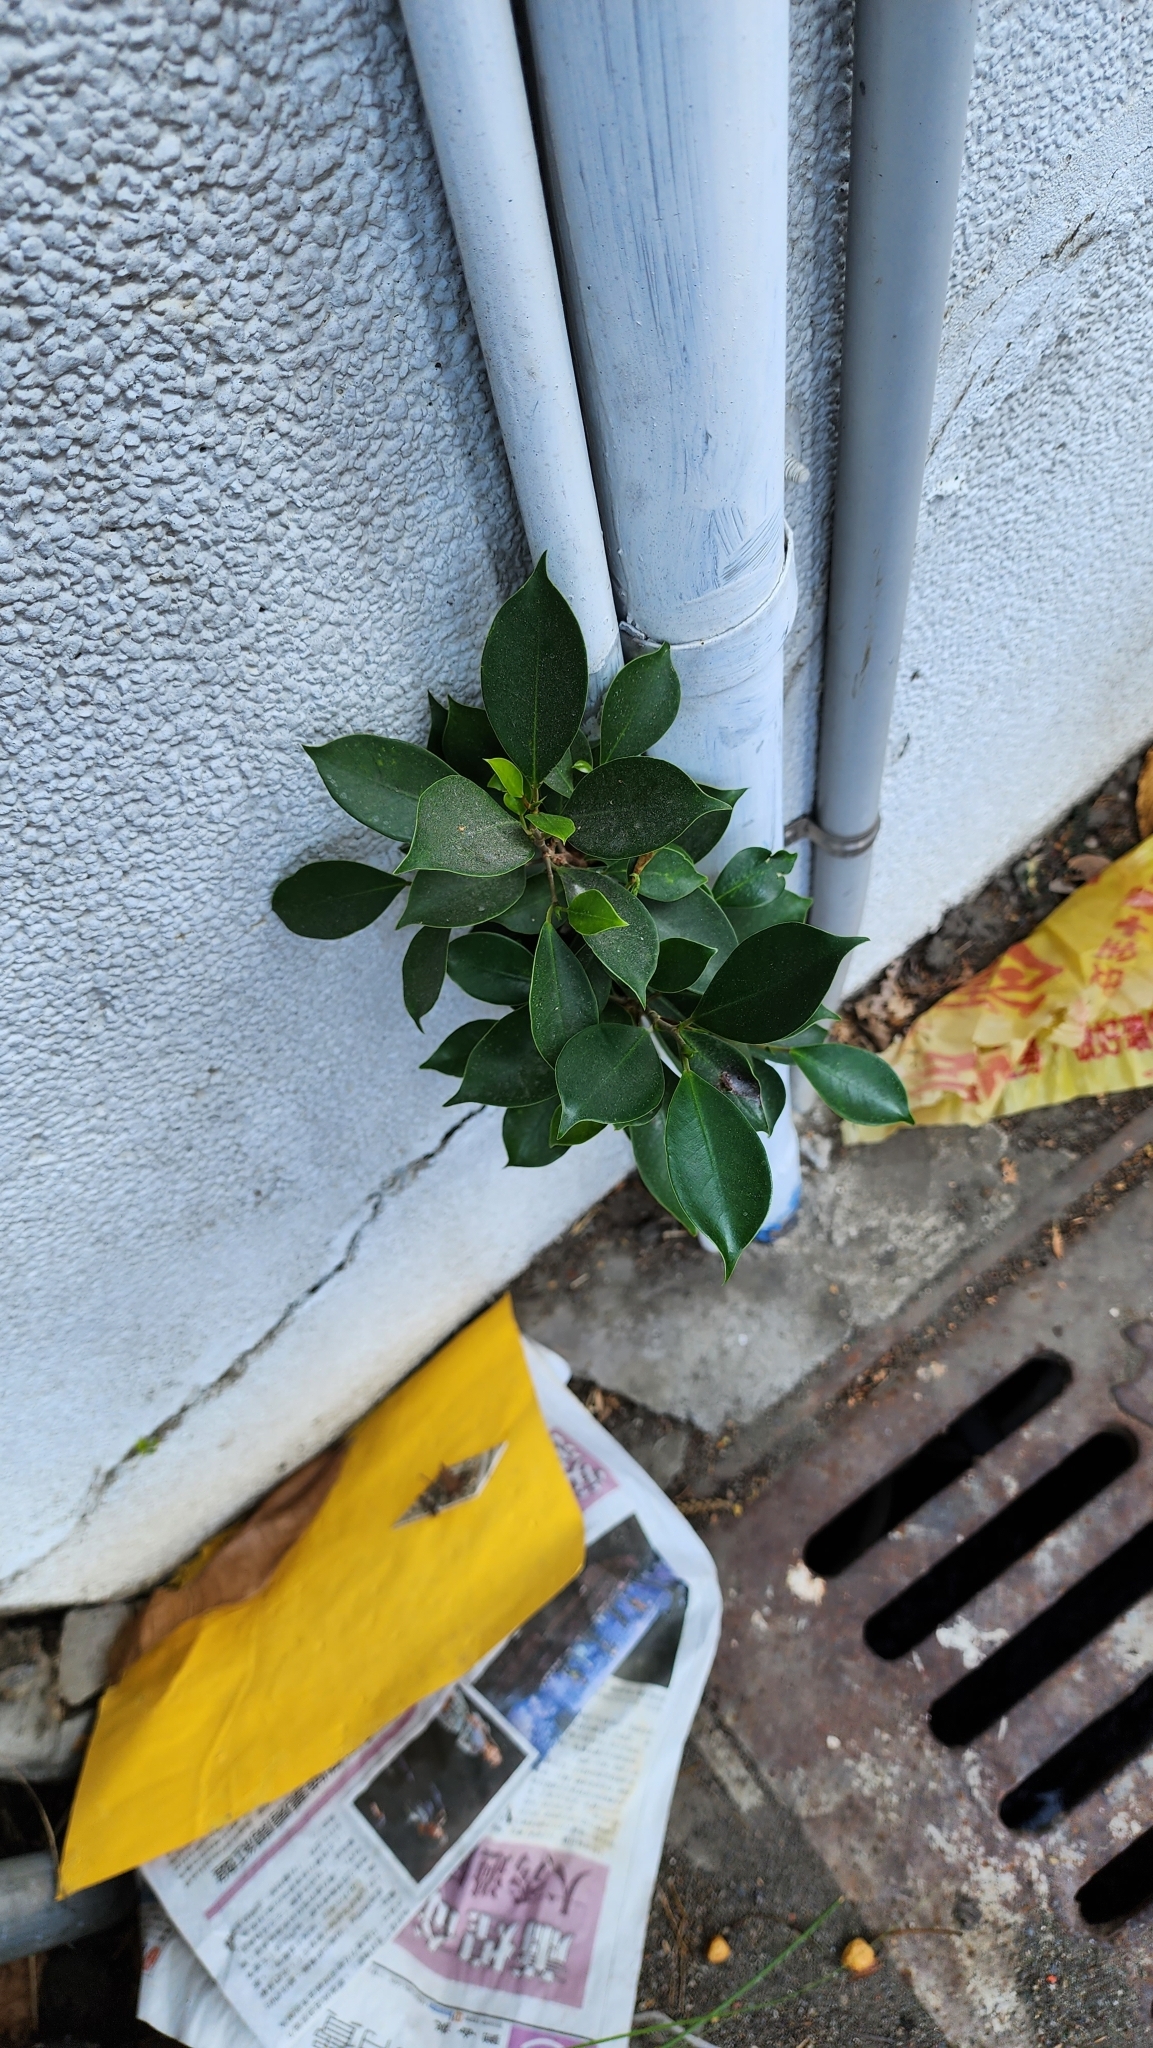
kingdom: Plantae
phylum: Tracheophyta
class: Magnoliopsida
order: Rosales
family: Moraceae
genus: Ficus
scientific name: Ficus microcarpa
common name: Chinese banyan
